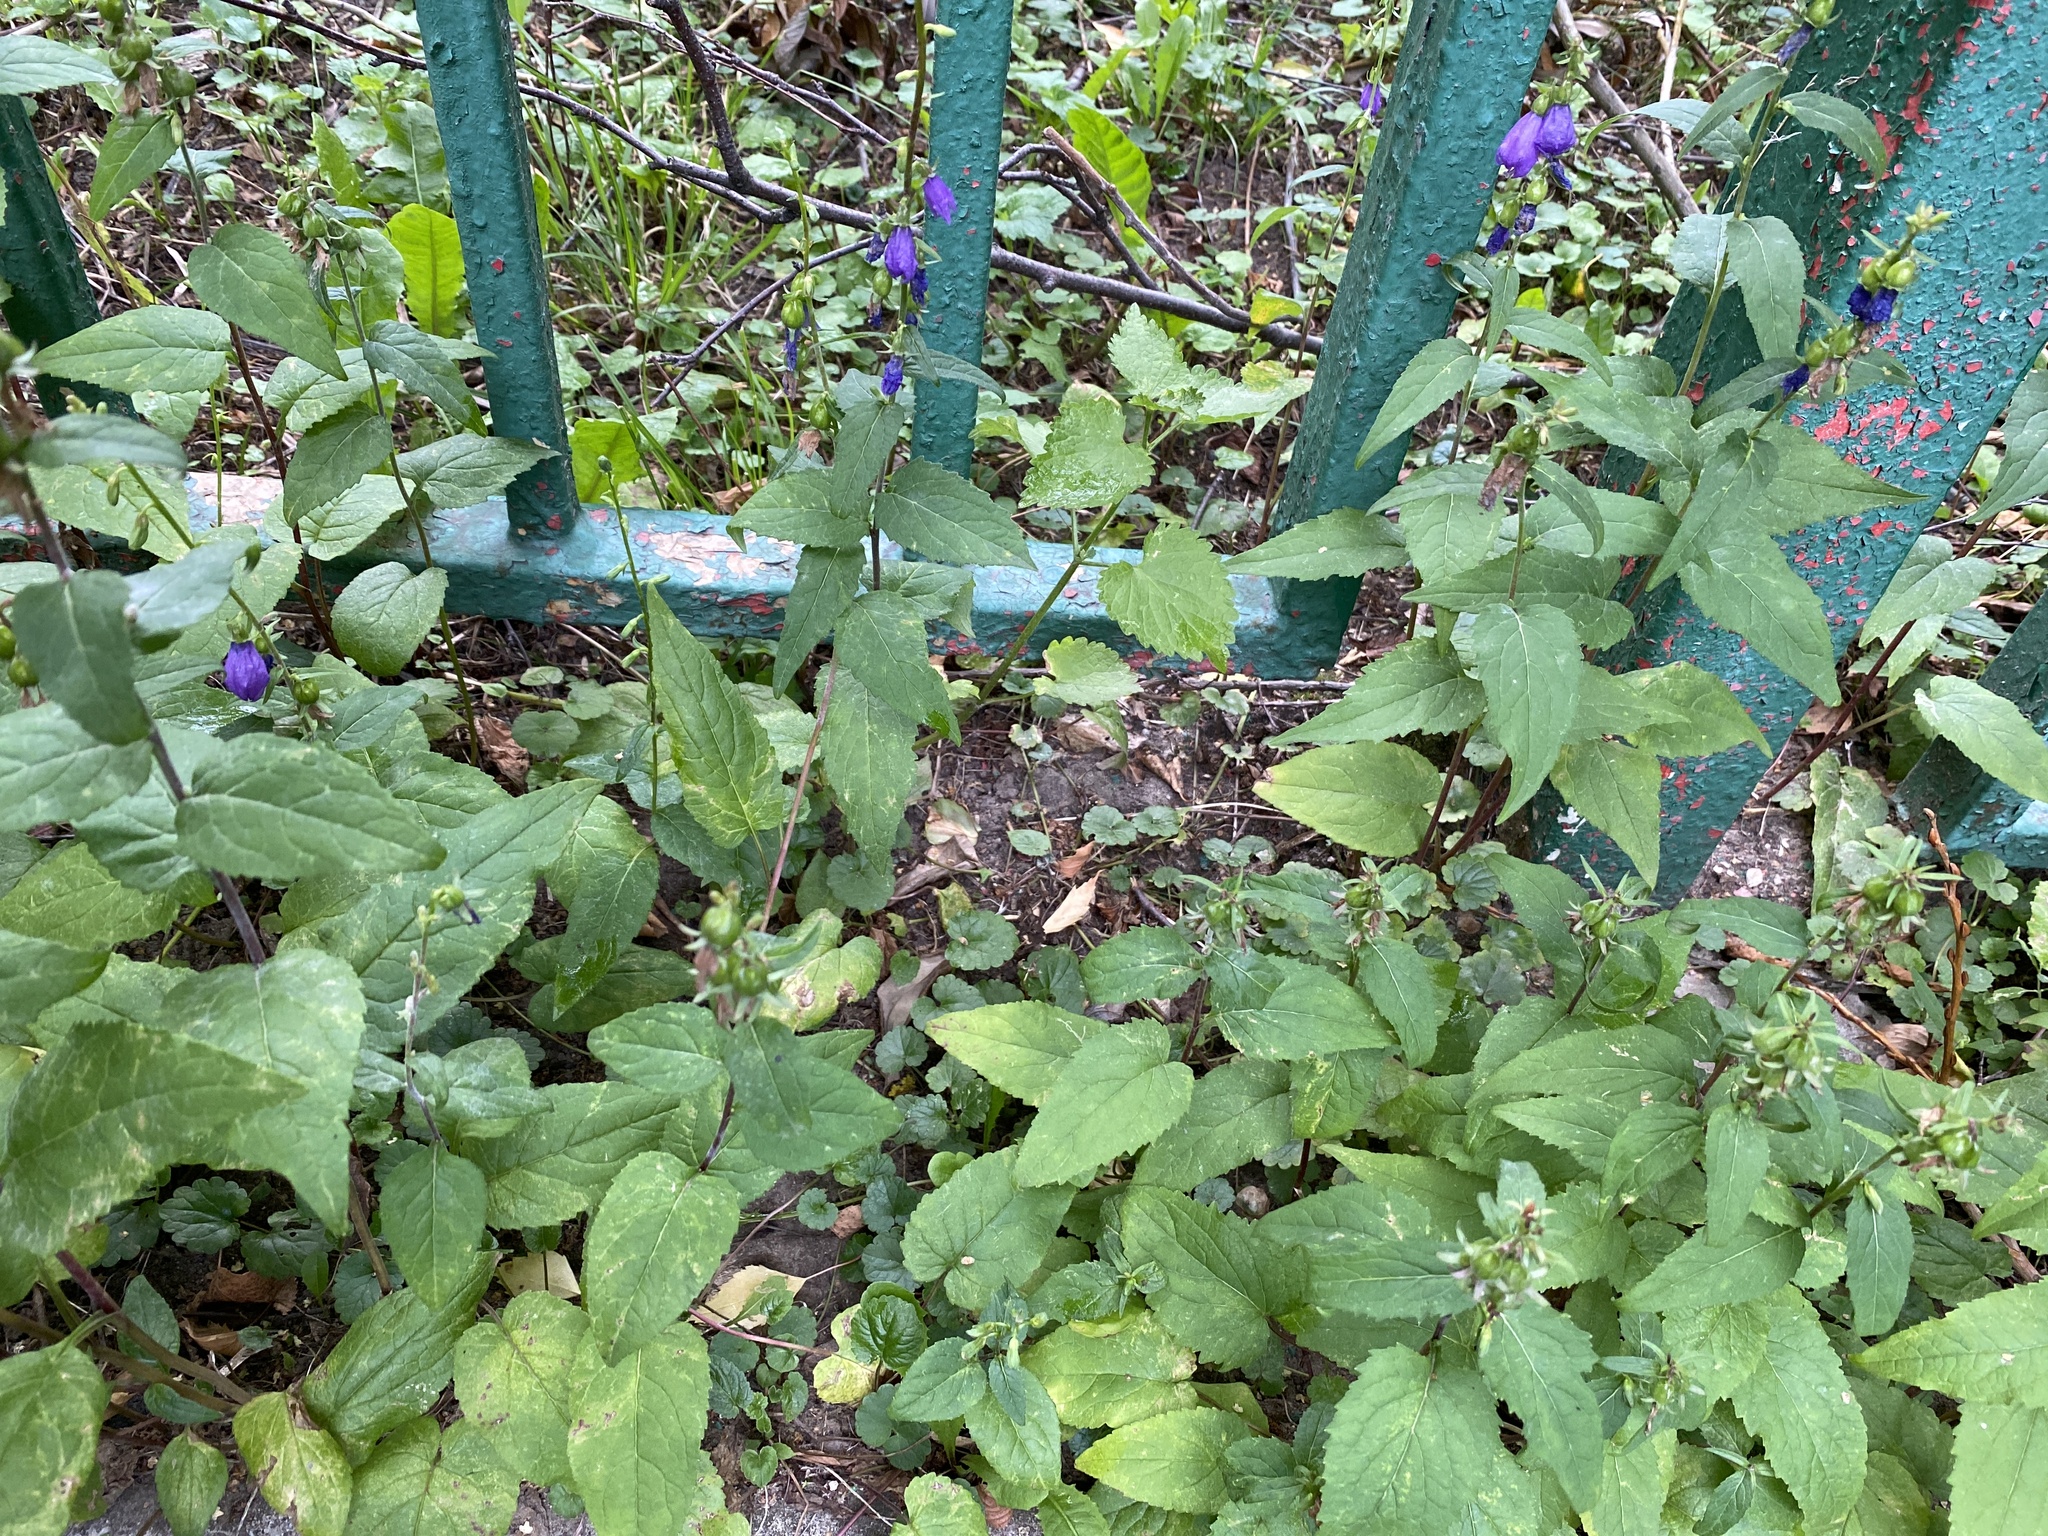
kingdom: Plantae
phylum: Tracheophyta
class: Magnoliopsida
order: Asterales
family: Campanulaceae
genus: Campanula
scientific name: Campanula rapunculoides
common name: Creeping bellflower
